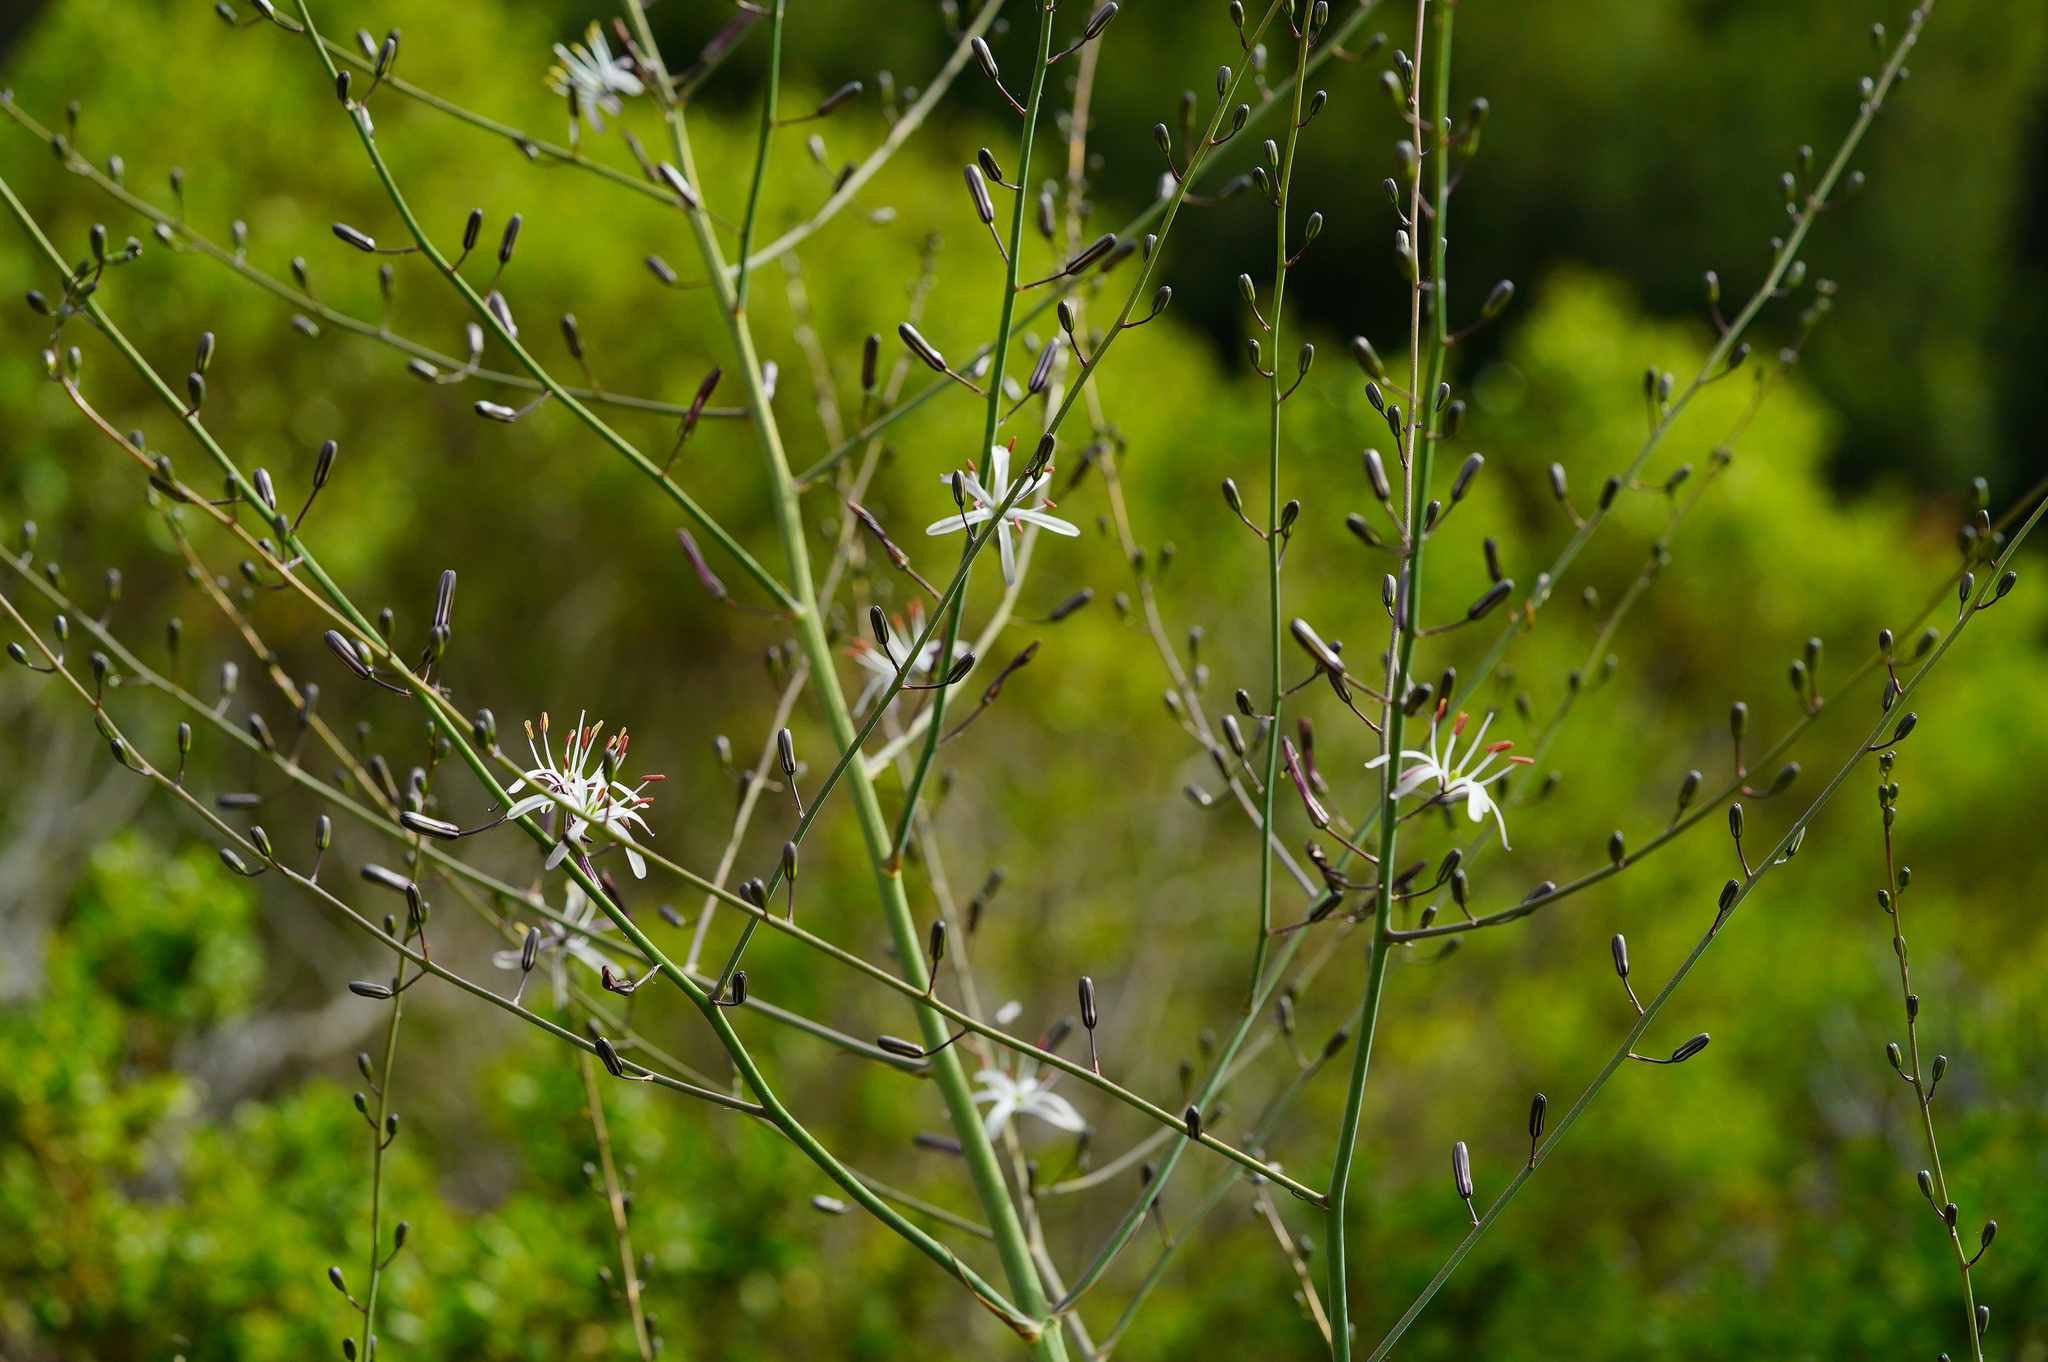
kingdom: Plantae
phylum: Tracheophyta
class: Liliopsida
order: Asparagales
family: Asparagaceae
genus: Chlorogalum
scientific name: Chlorogalum pomeridianum
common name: Amole
